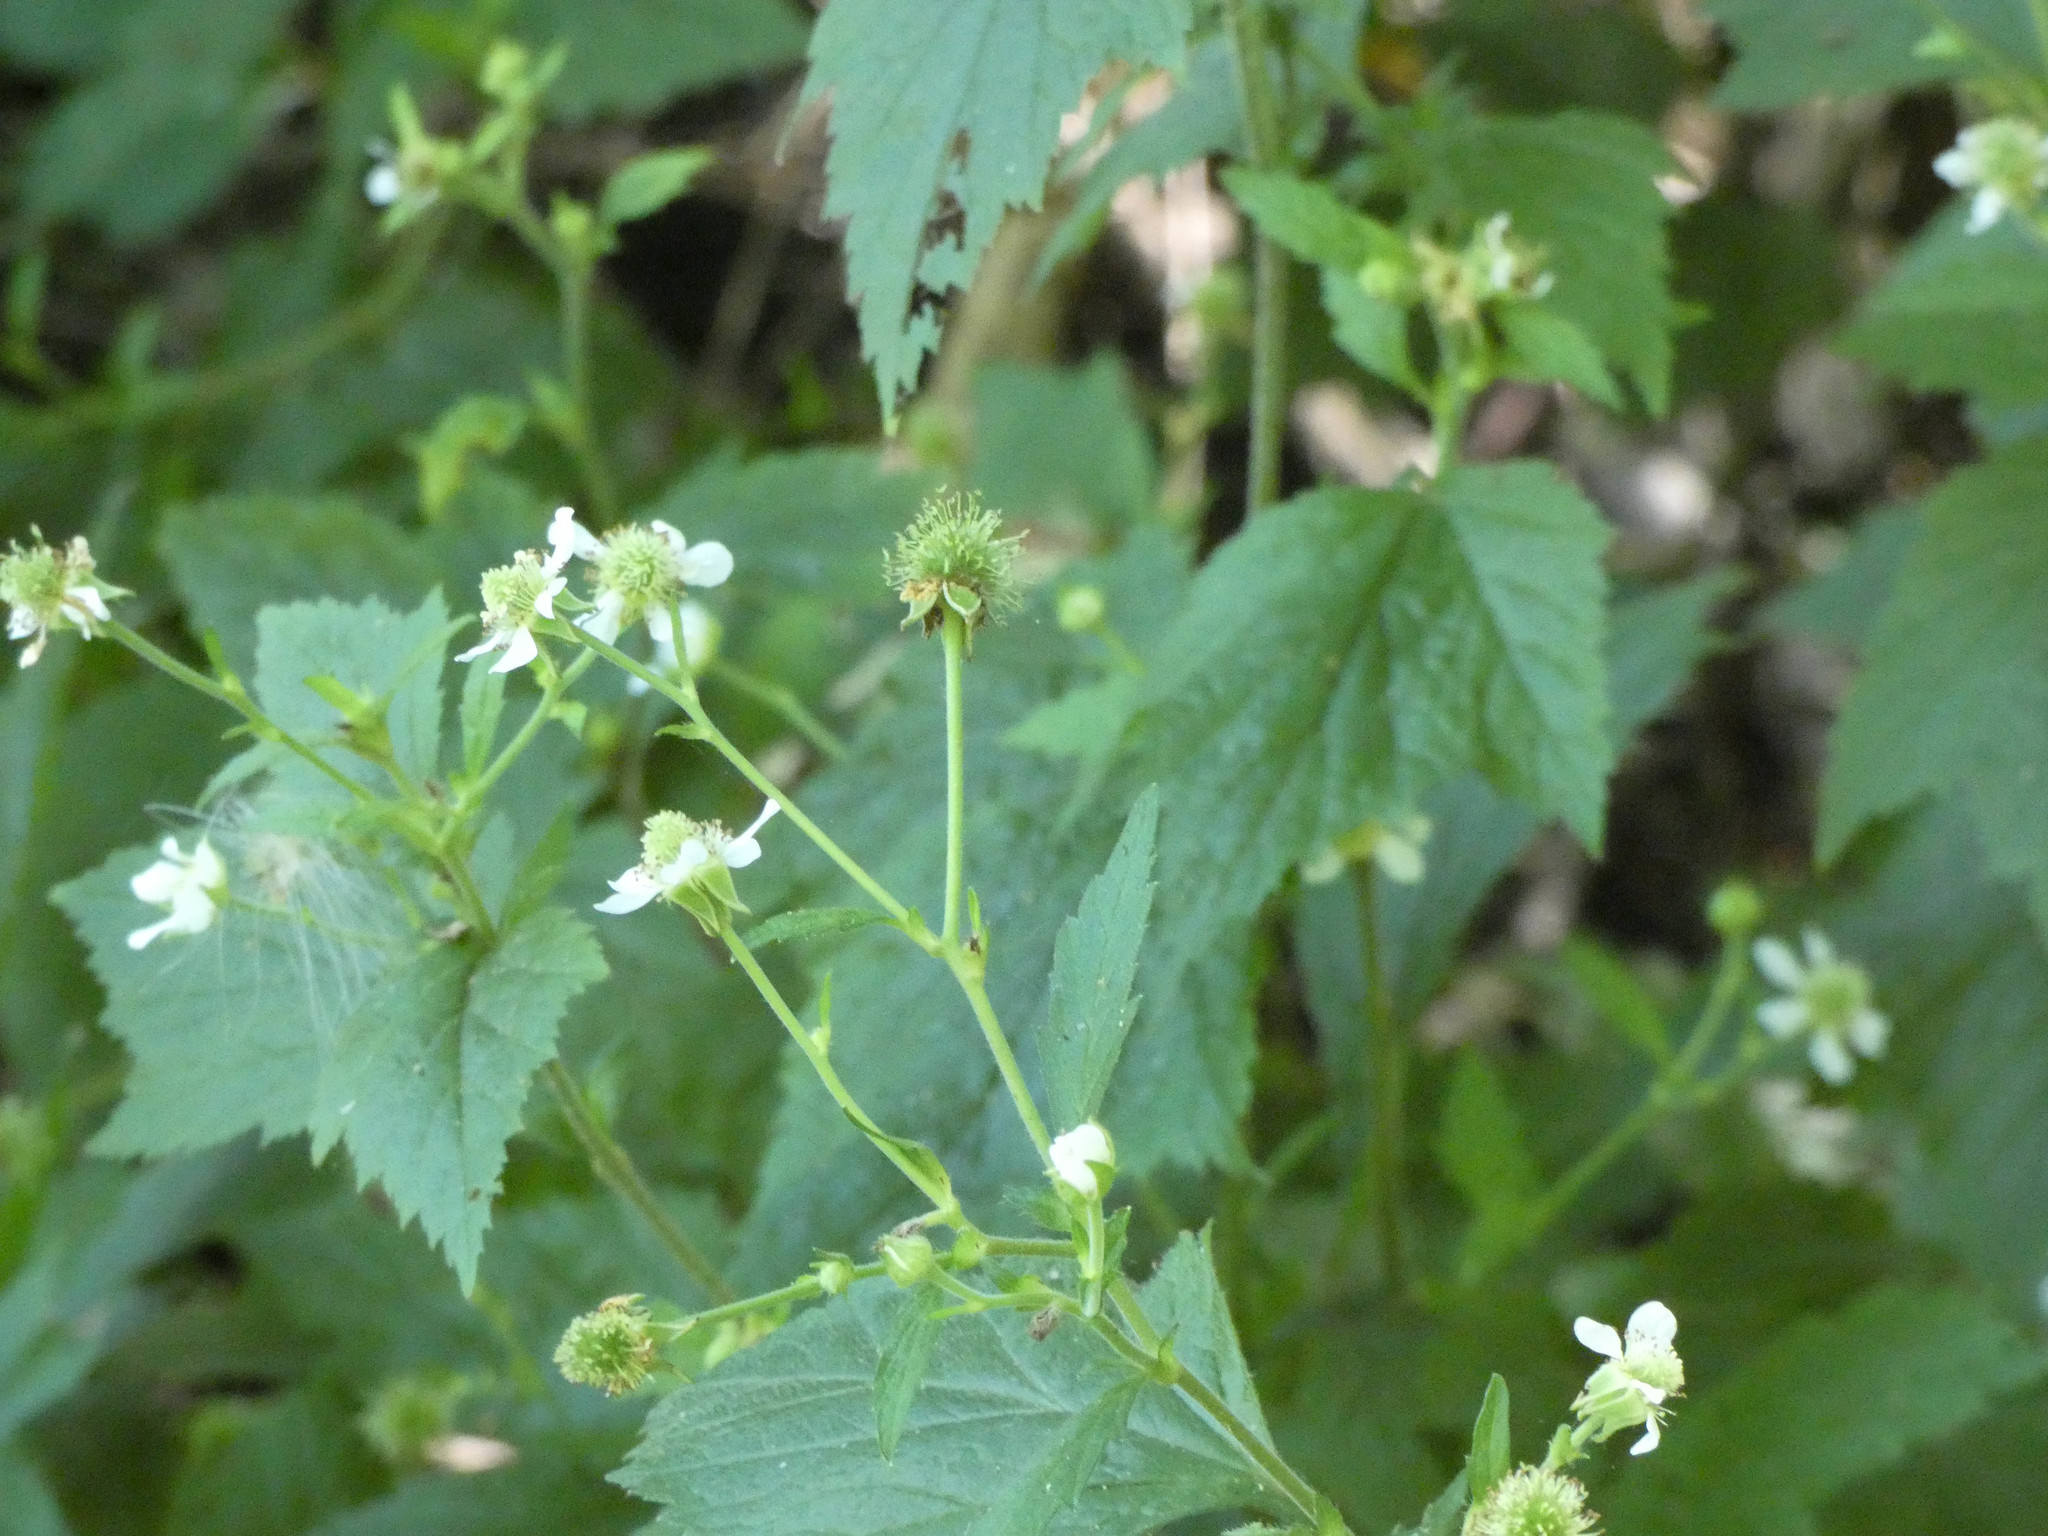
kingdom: Plantae
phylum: Tracheophyta
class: Magnoliopsida
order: Rosales
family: Rosaceae
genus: Geum
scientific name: Geum canadense
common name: White avens
